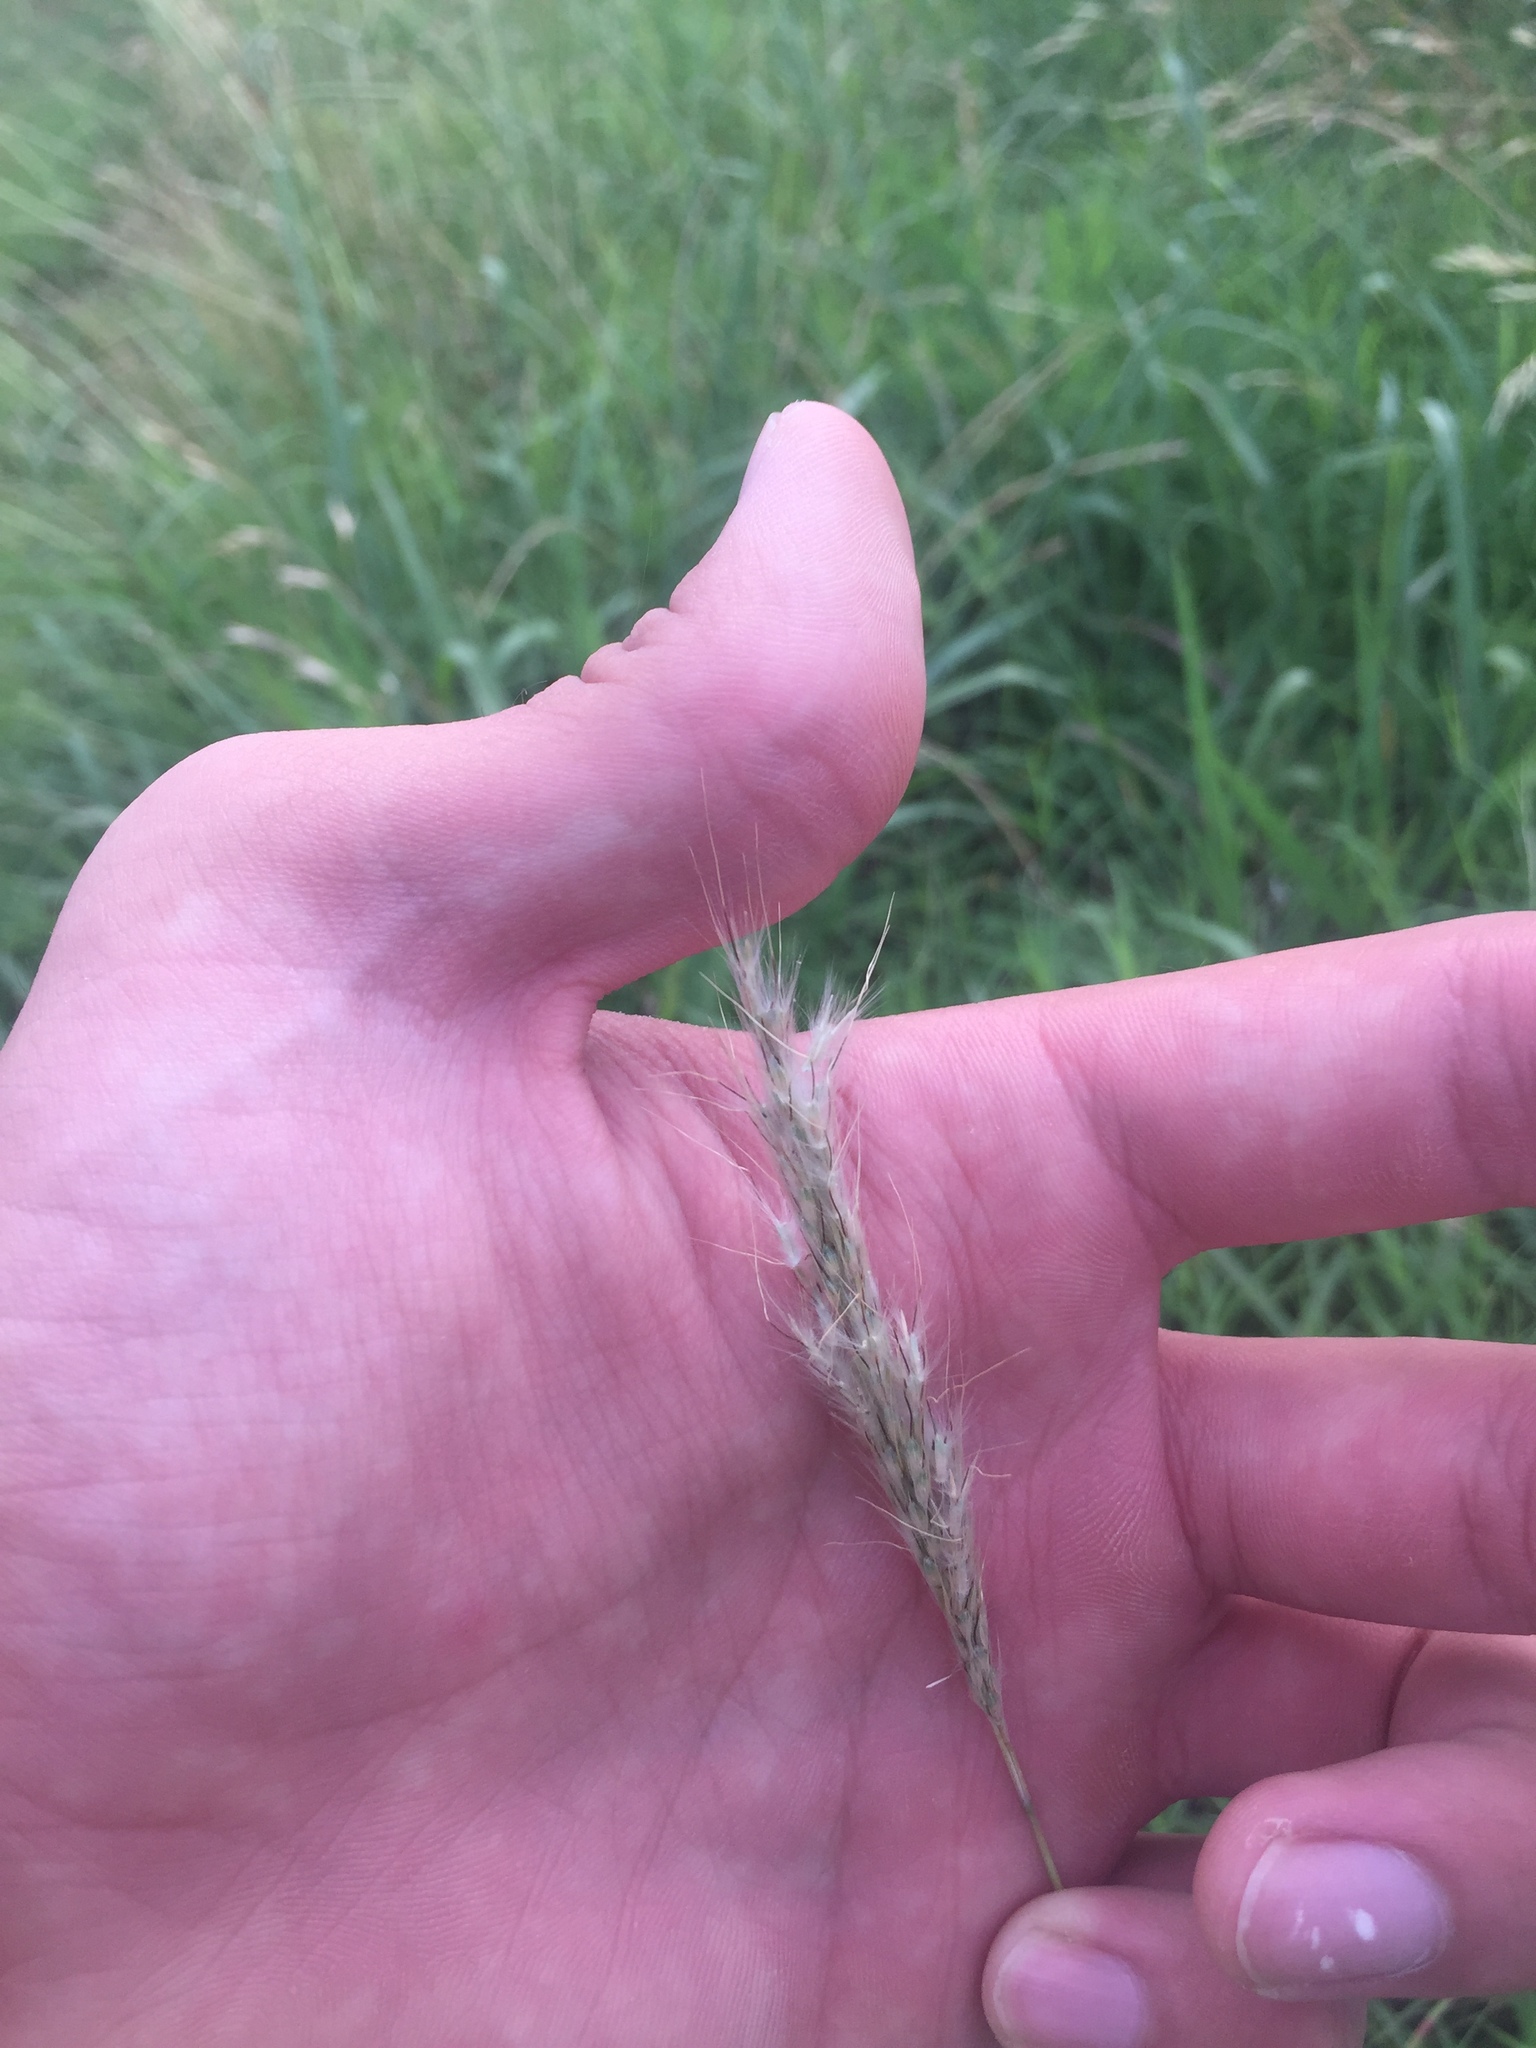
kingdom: Plantae
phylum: Tracheophyta
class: Liliopsida
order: Poales
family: Poaceae
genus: Bothriochloa
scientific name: Bothriochloa torreyana
